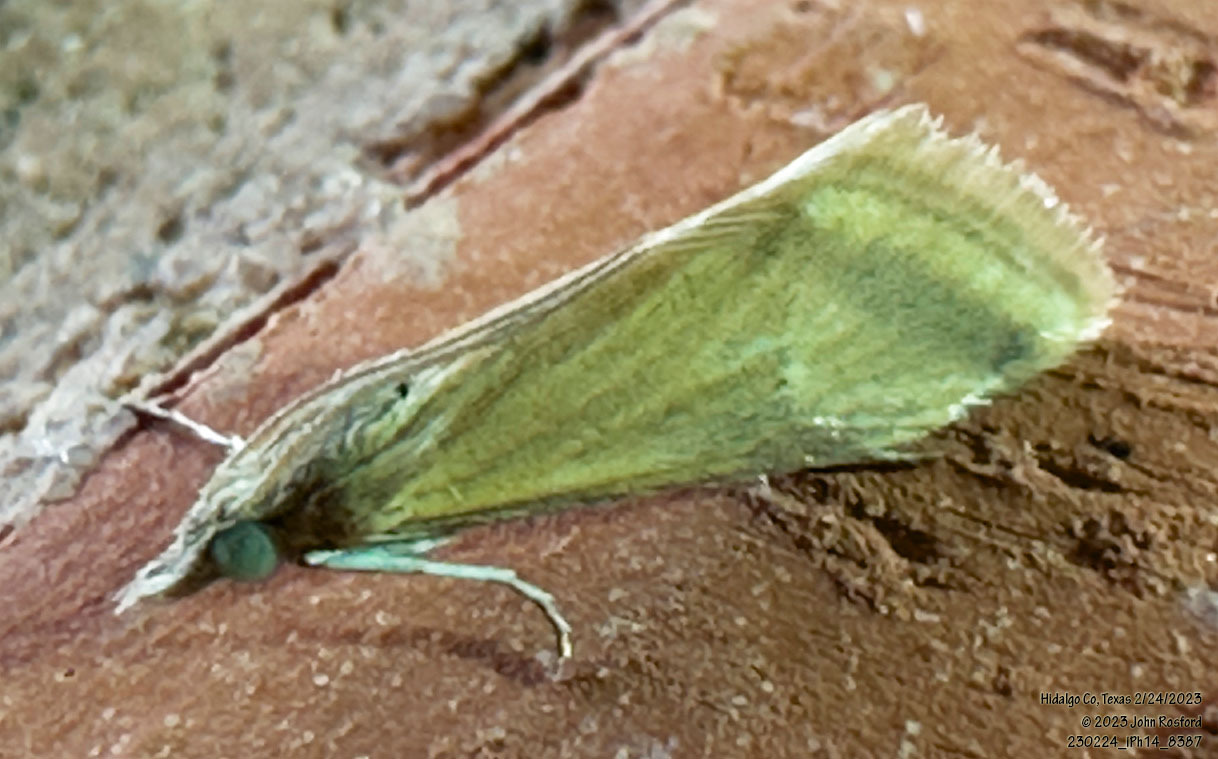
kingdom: Animalia
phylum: Arthropoda
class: Insecta
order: Lepidoptera
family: Crambidae
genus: Microtheoris
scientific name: Microtheoris vibicalis
